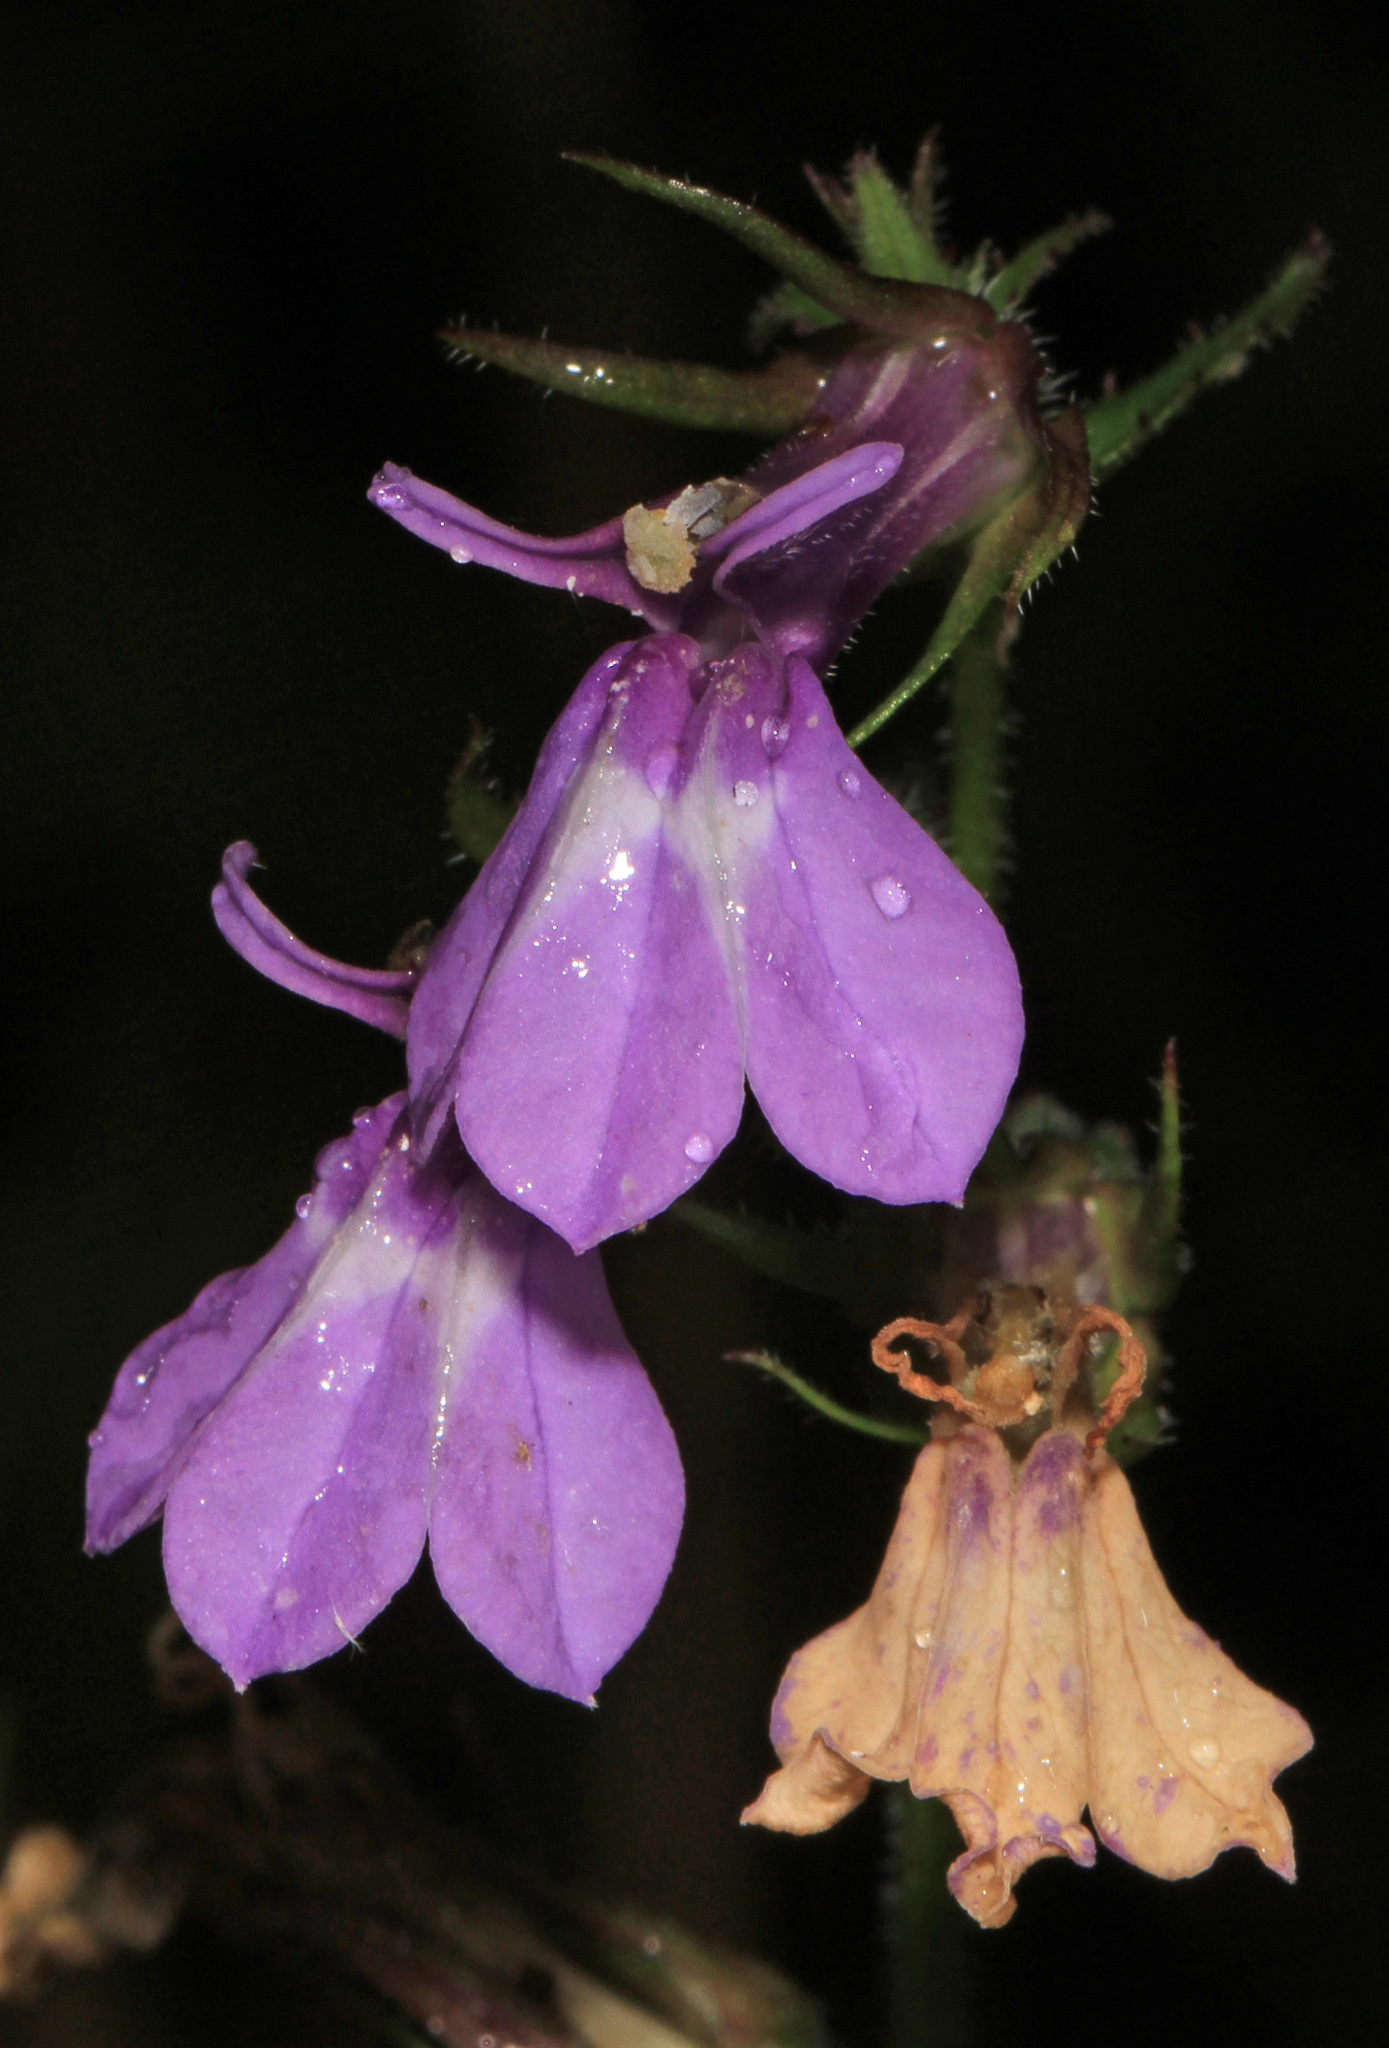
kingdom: Plantae
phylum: Tracheophyta
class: Magnoliopsida
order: Asterales
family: Campanulaceae
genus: Lobelia
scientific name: Lobelia puberula
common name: Purple dewdrop
